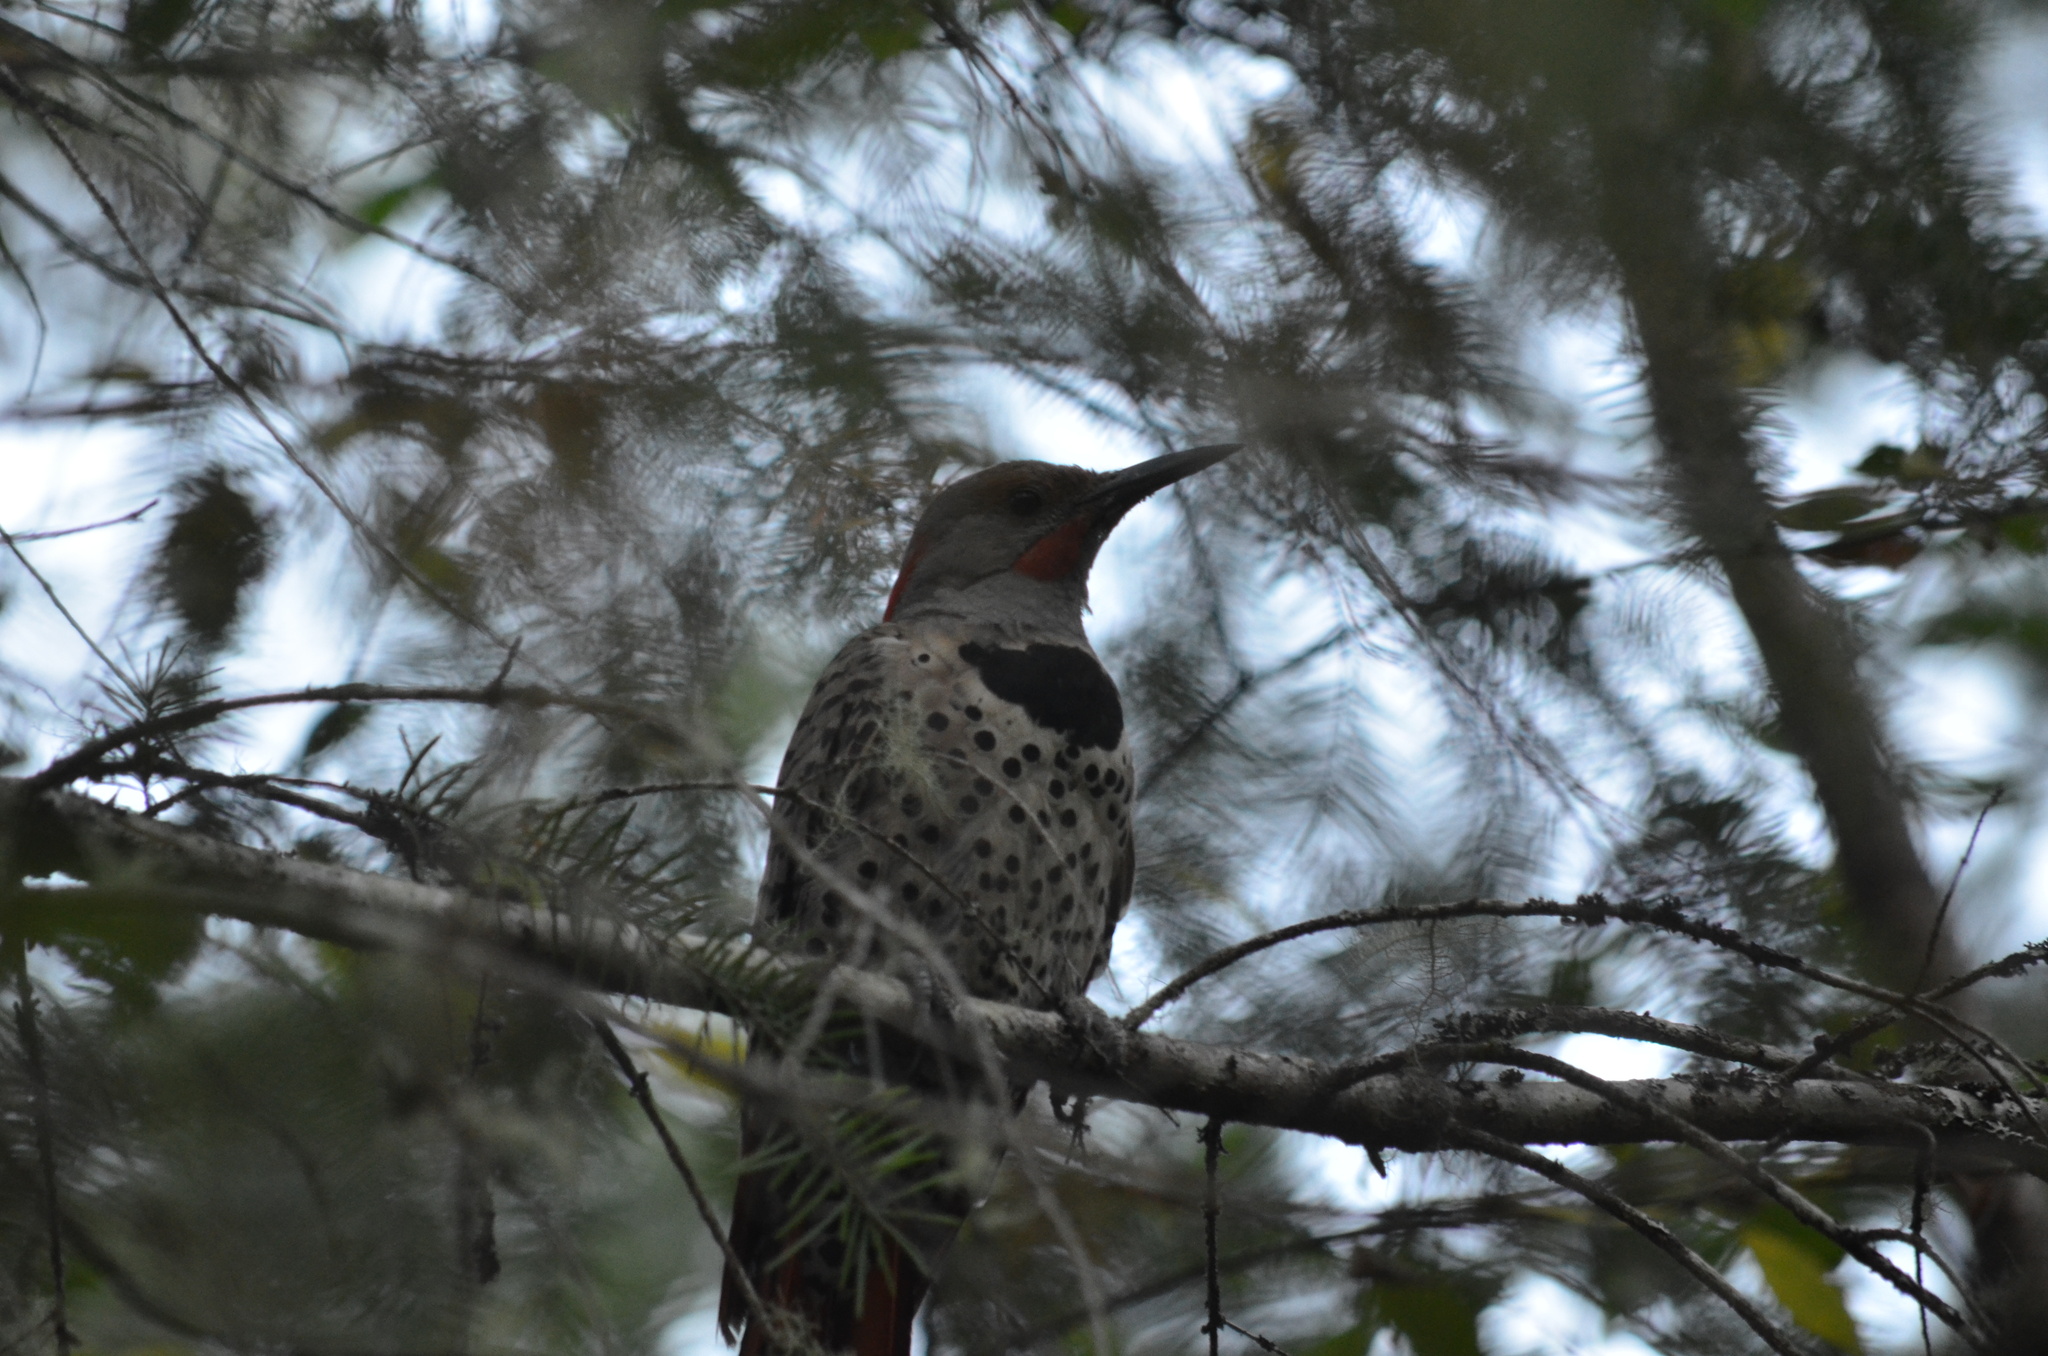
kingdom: Animalia
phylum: Chordata
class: Aves
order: Piciformes
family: Picidae
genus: Colaptes
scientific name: Colaptes auratus
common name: Northern flicker
